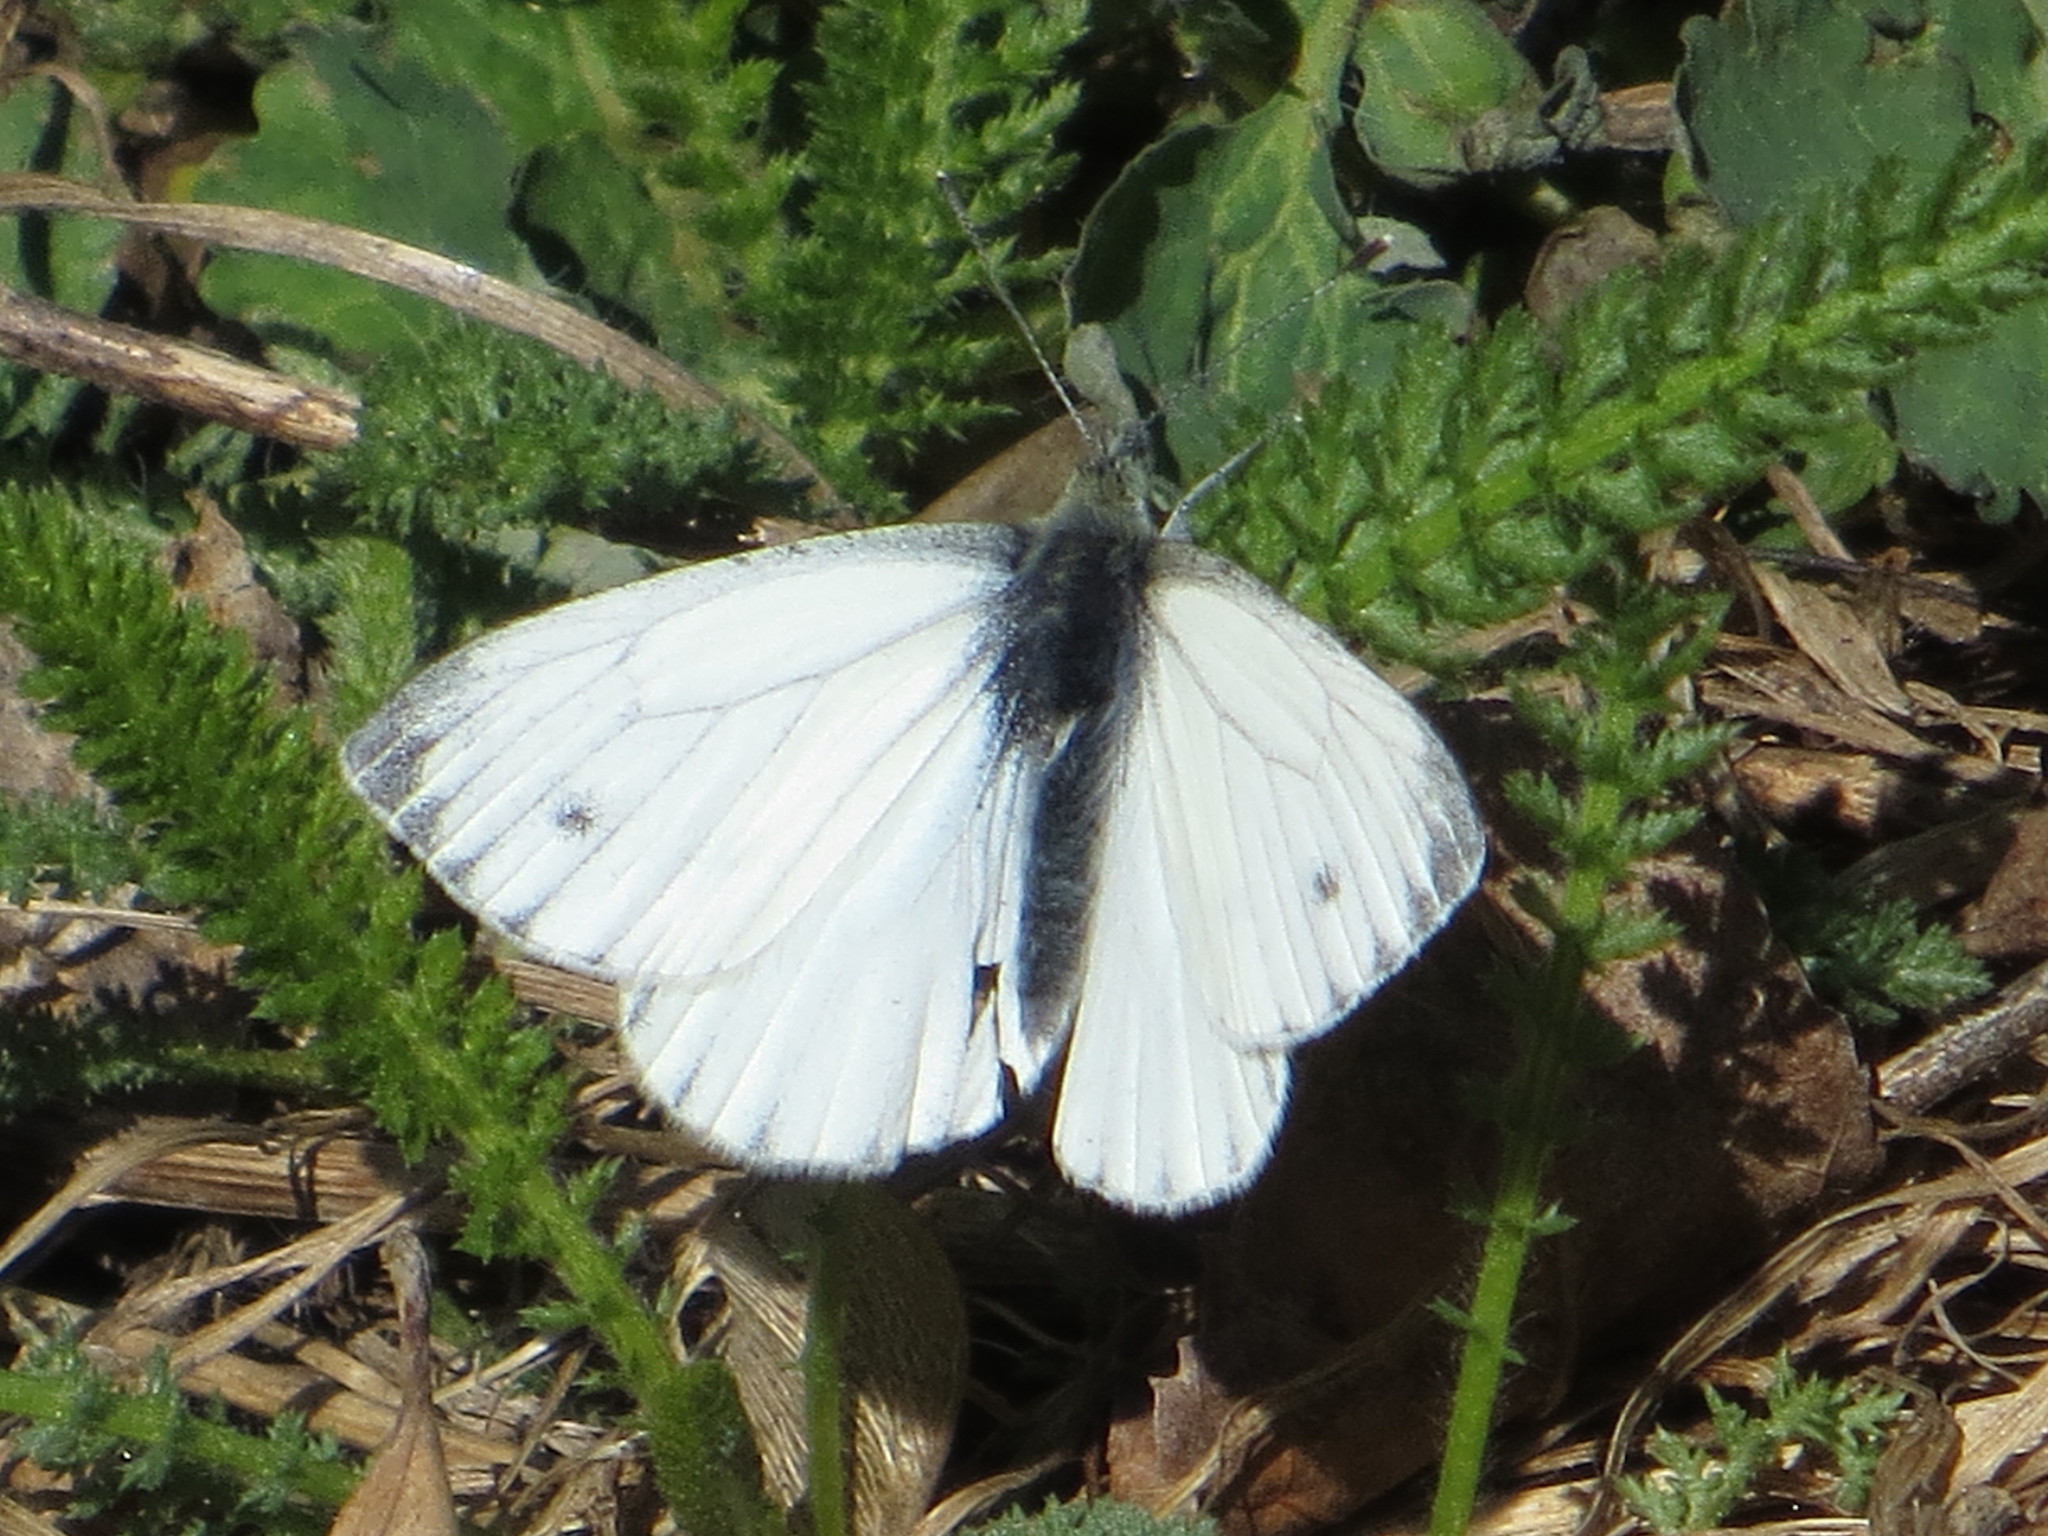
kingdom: Animalia
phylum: Arthropoda
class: Insecta
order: Lepidoptera
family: Pieridae
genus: Pieris
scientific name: Pieris napi
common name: Green-veined white
